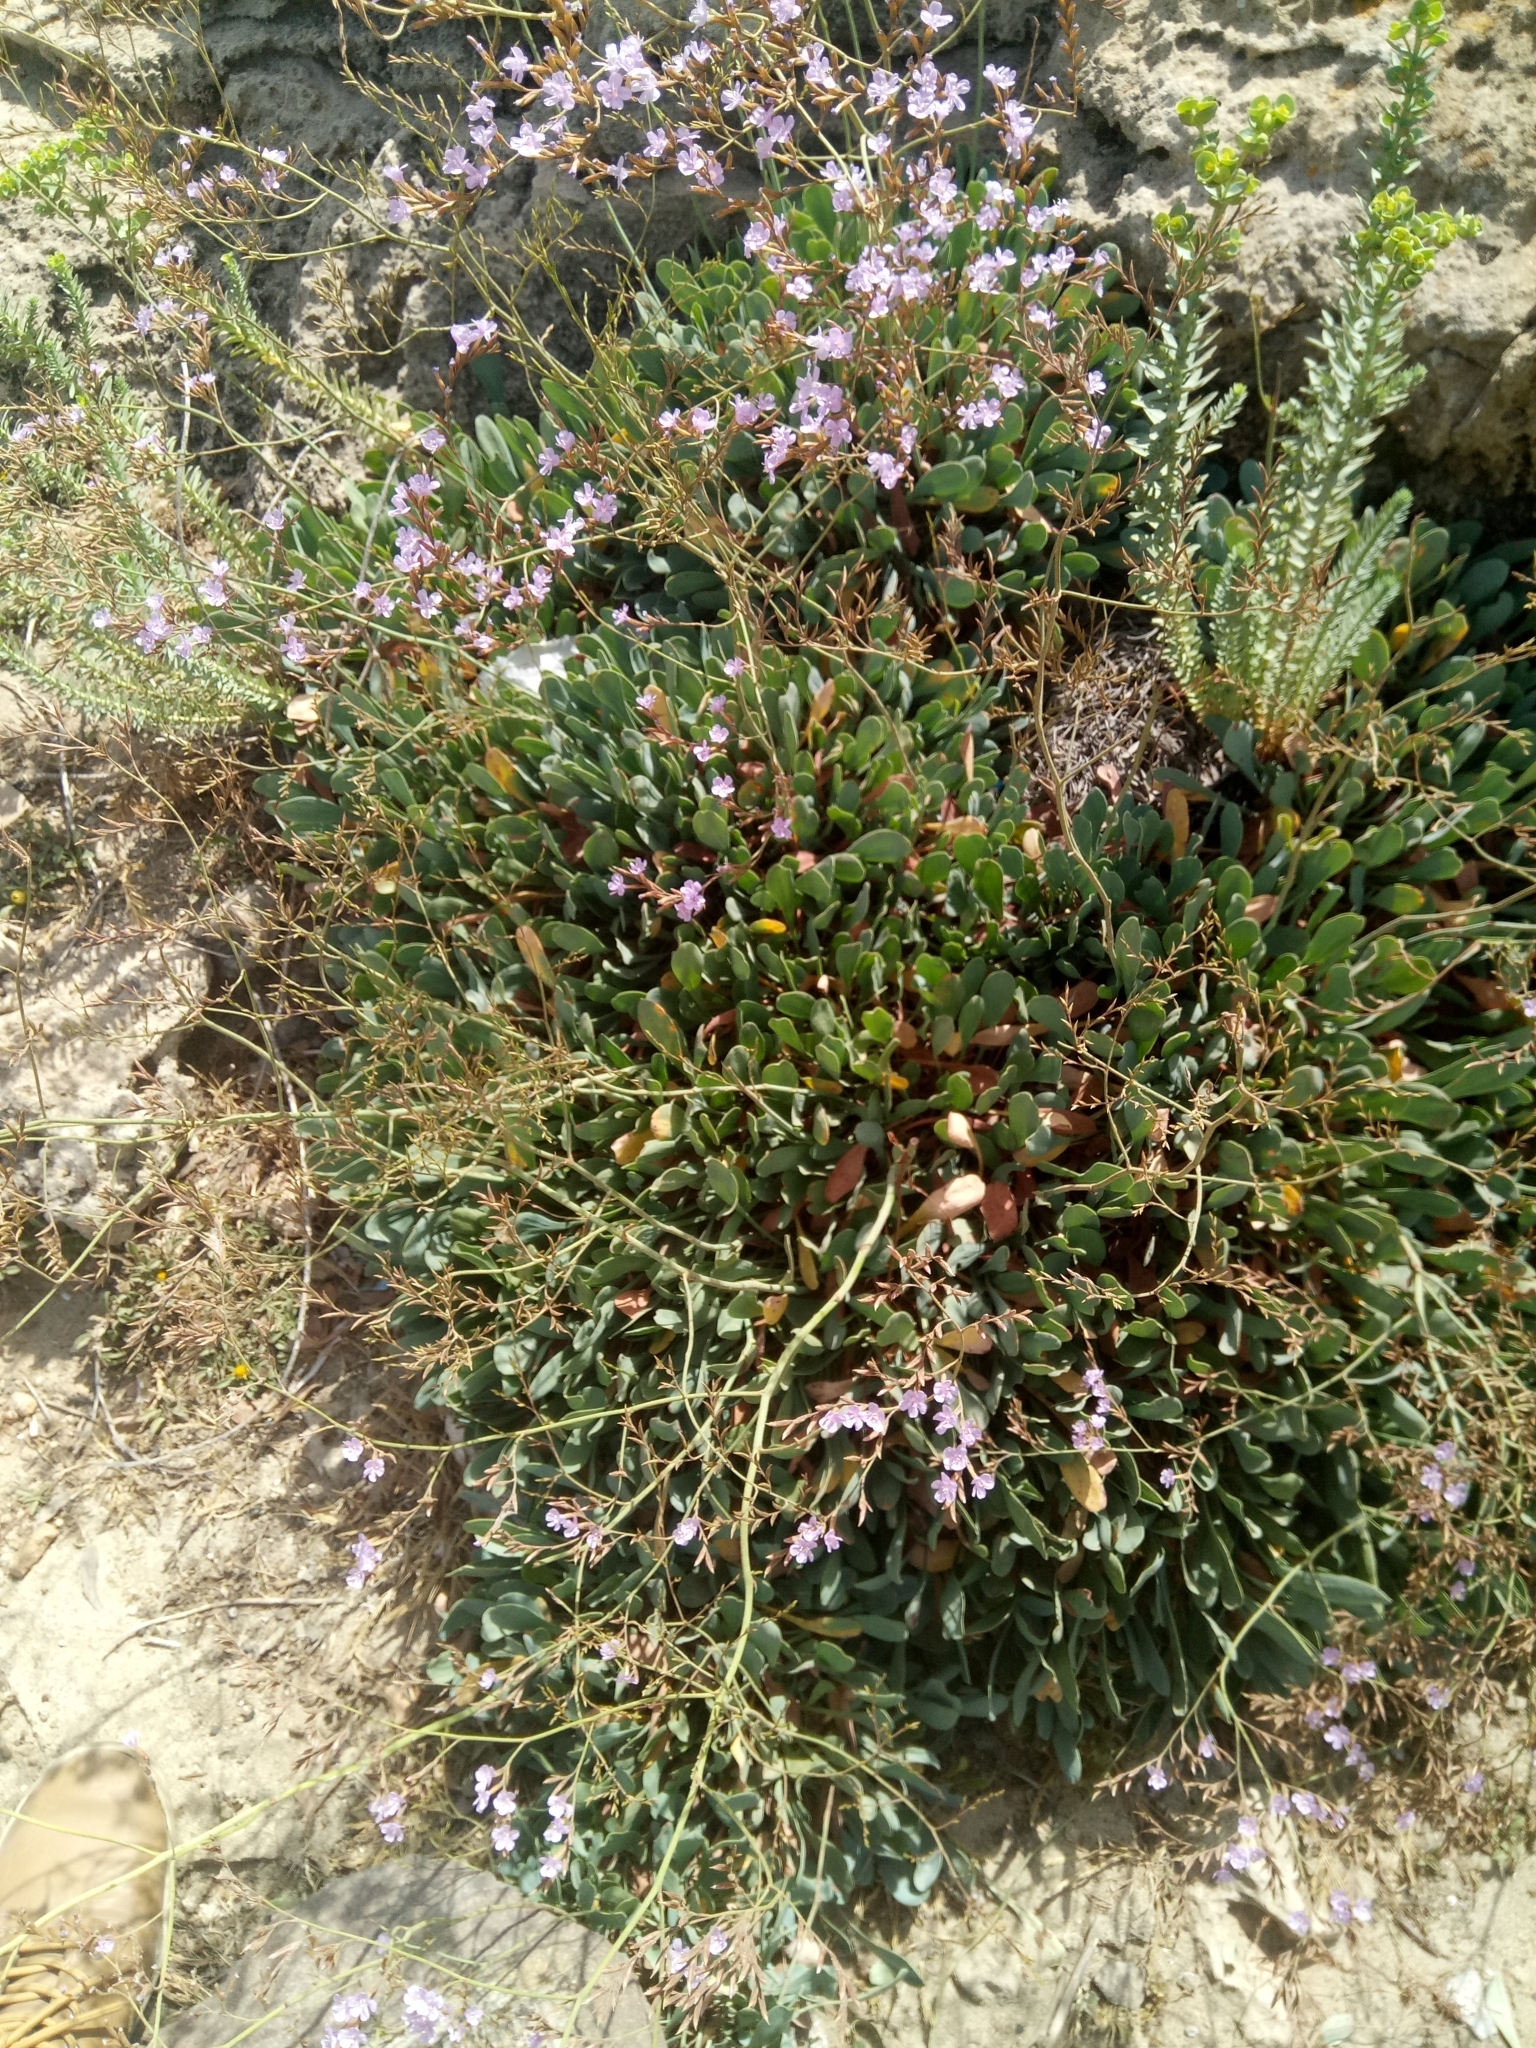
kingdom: Plantae
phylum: Tracheophyta
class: Magnoliopsida
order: Caryophyllales
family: Plumbaginaceae
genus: Limonium
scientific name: Limonium spathulatum
